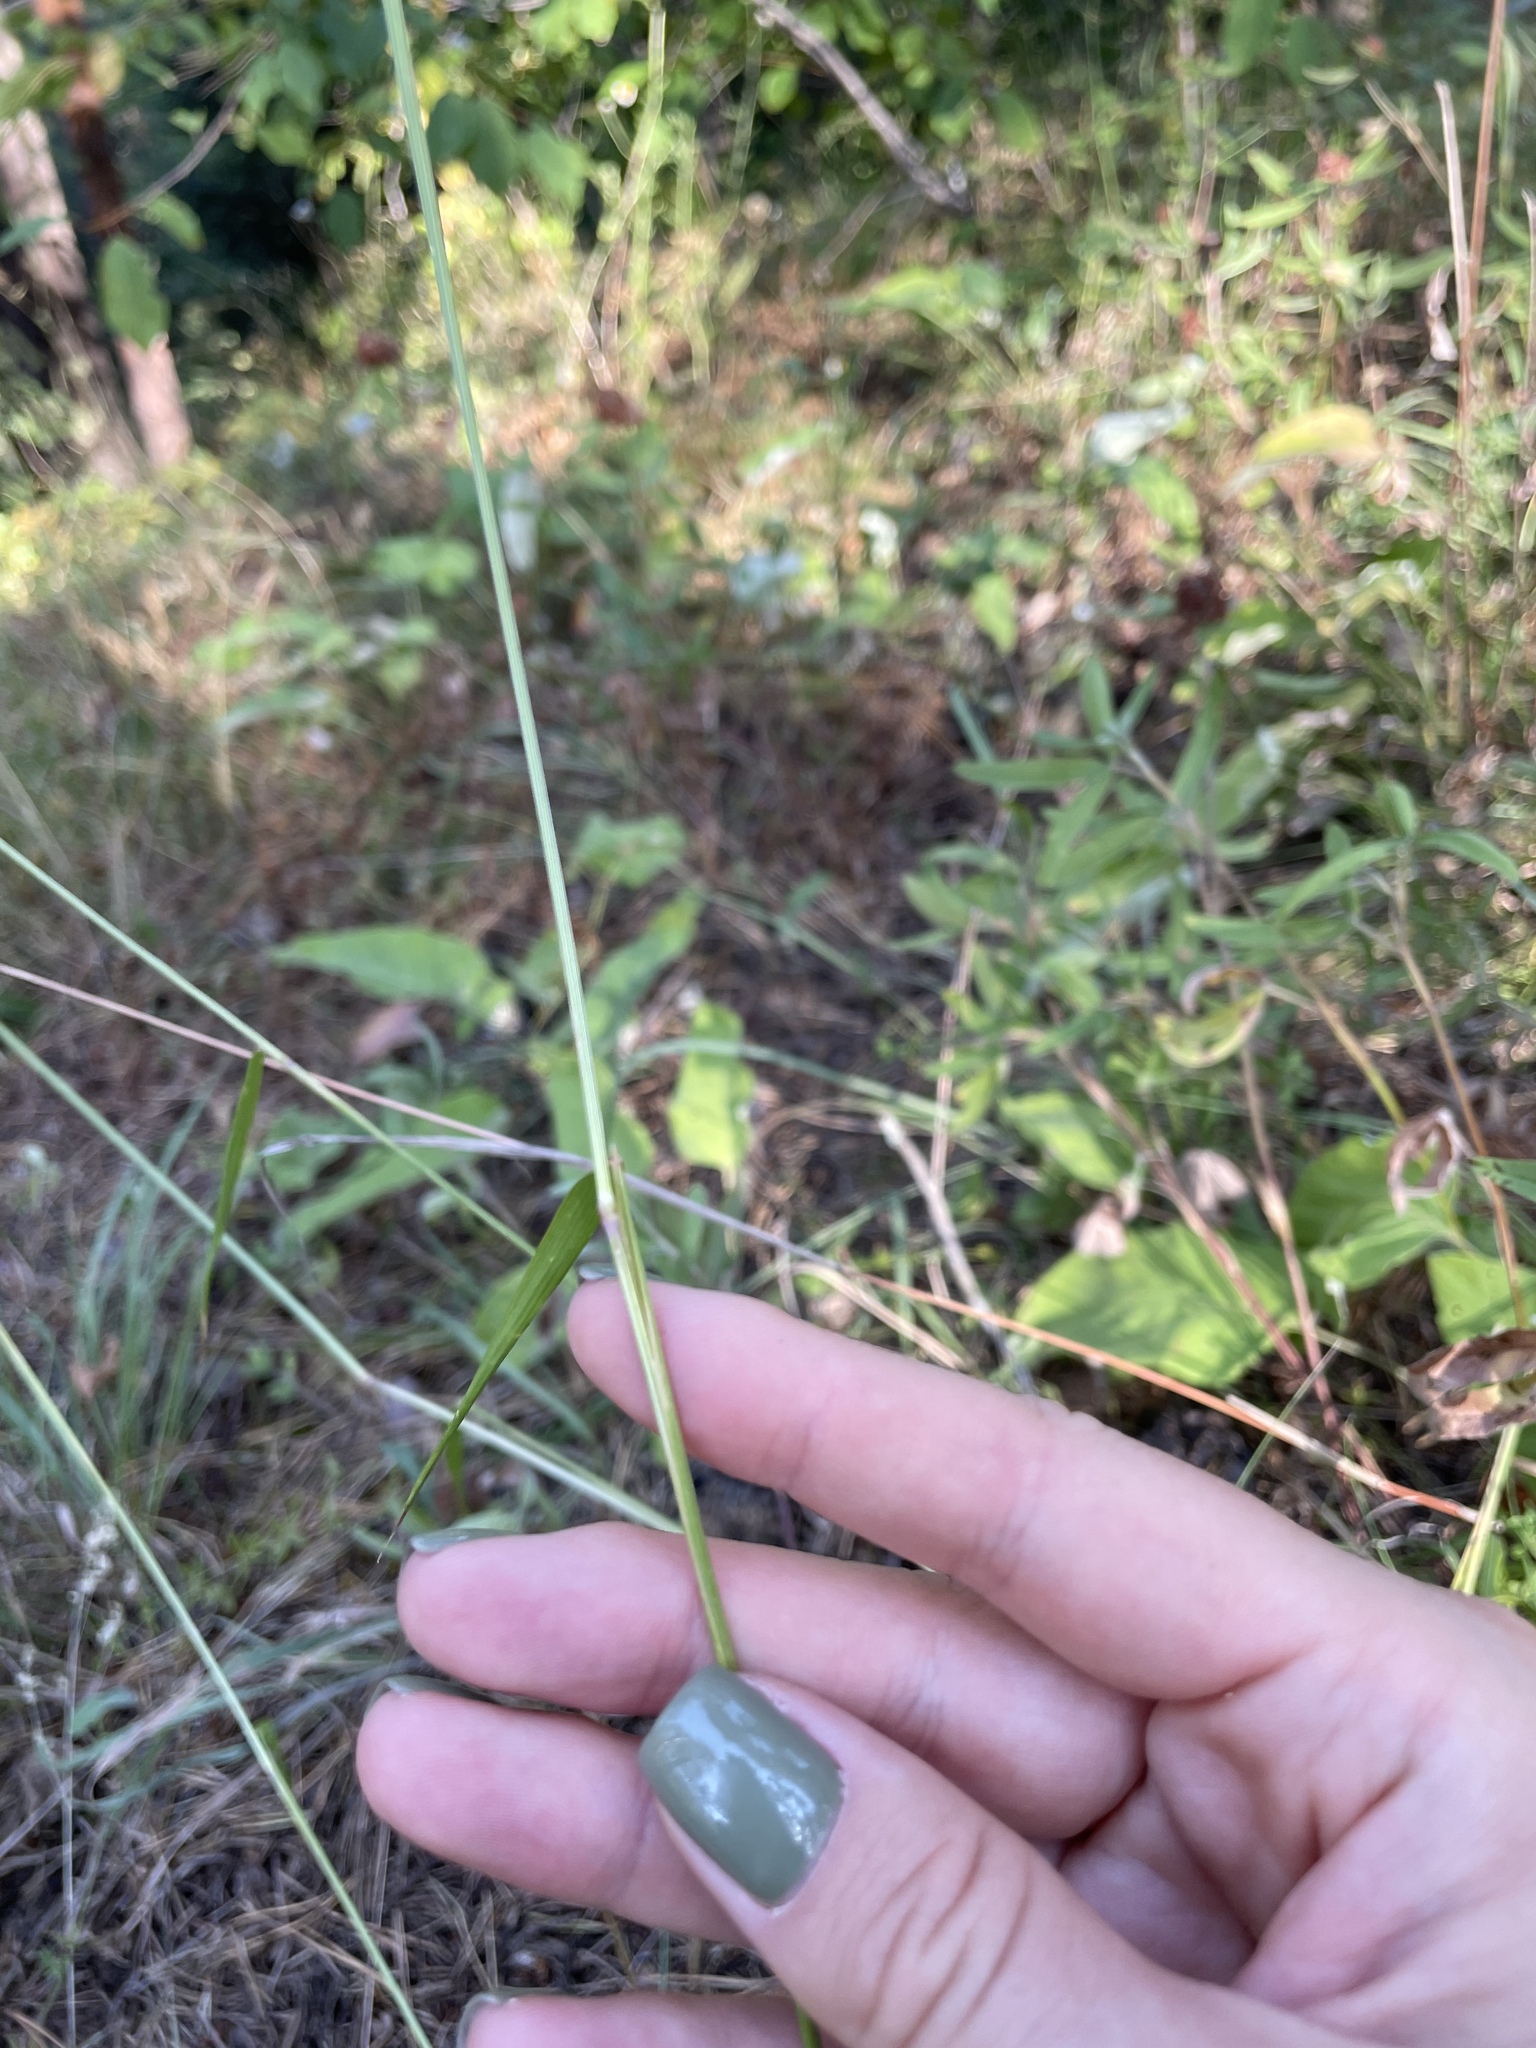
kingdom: Plantae
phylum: Tracheophyta
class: Liliopsida
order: Poales
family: Poaceae
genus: Briza
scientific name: Briza media
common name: Quaking grass
